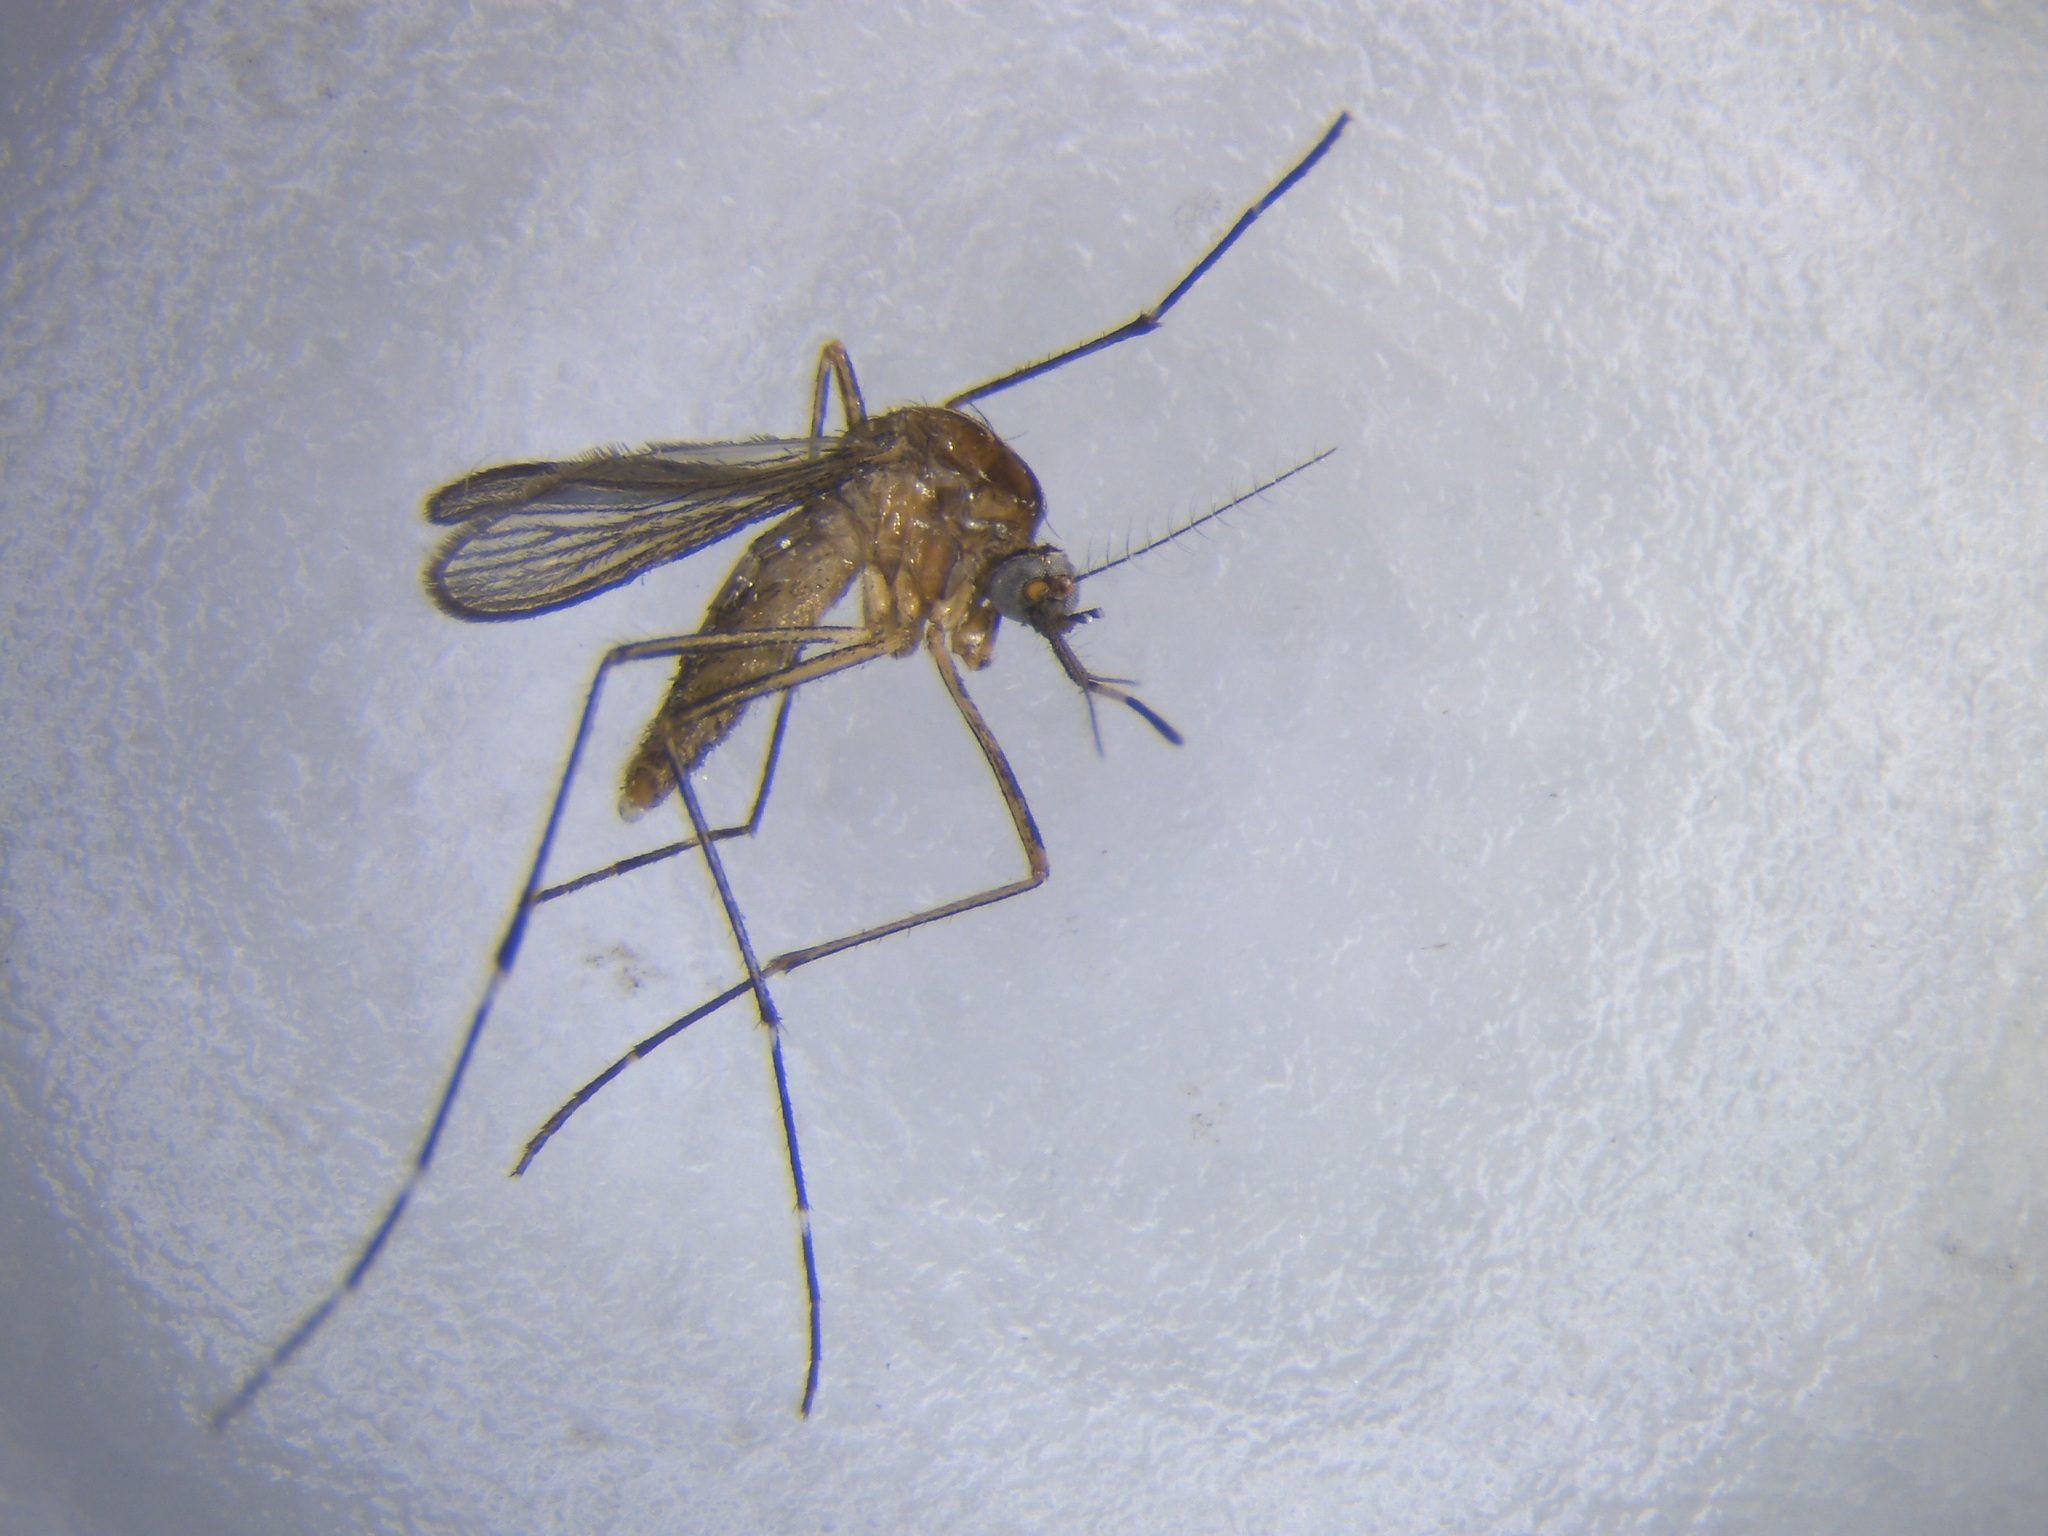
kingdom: Animalia
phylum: Arthropoda
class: Insecta
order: Diptera
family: Culicidae
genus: Aedes
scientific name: Aedes notoscriptus
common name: Australian backyard mosquito
